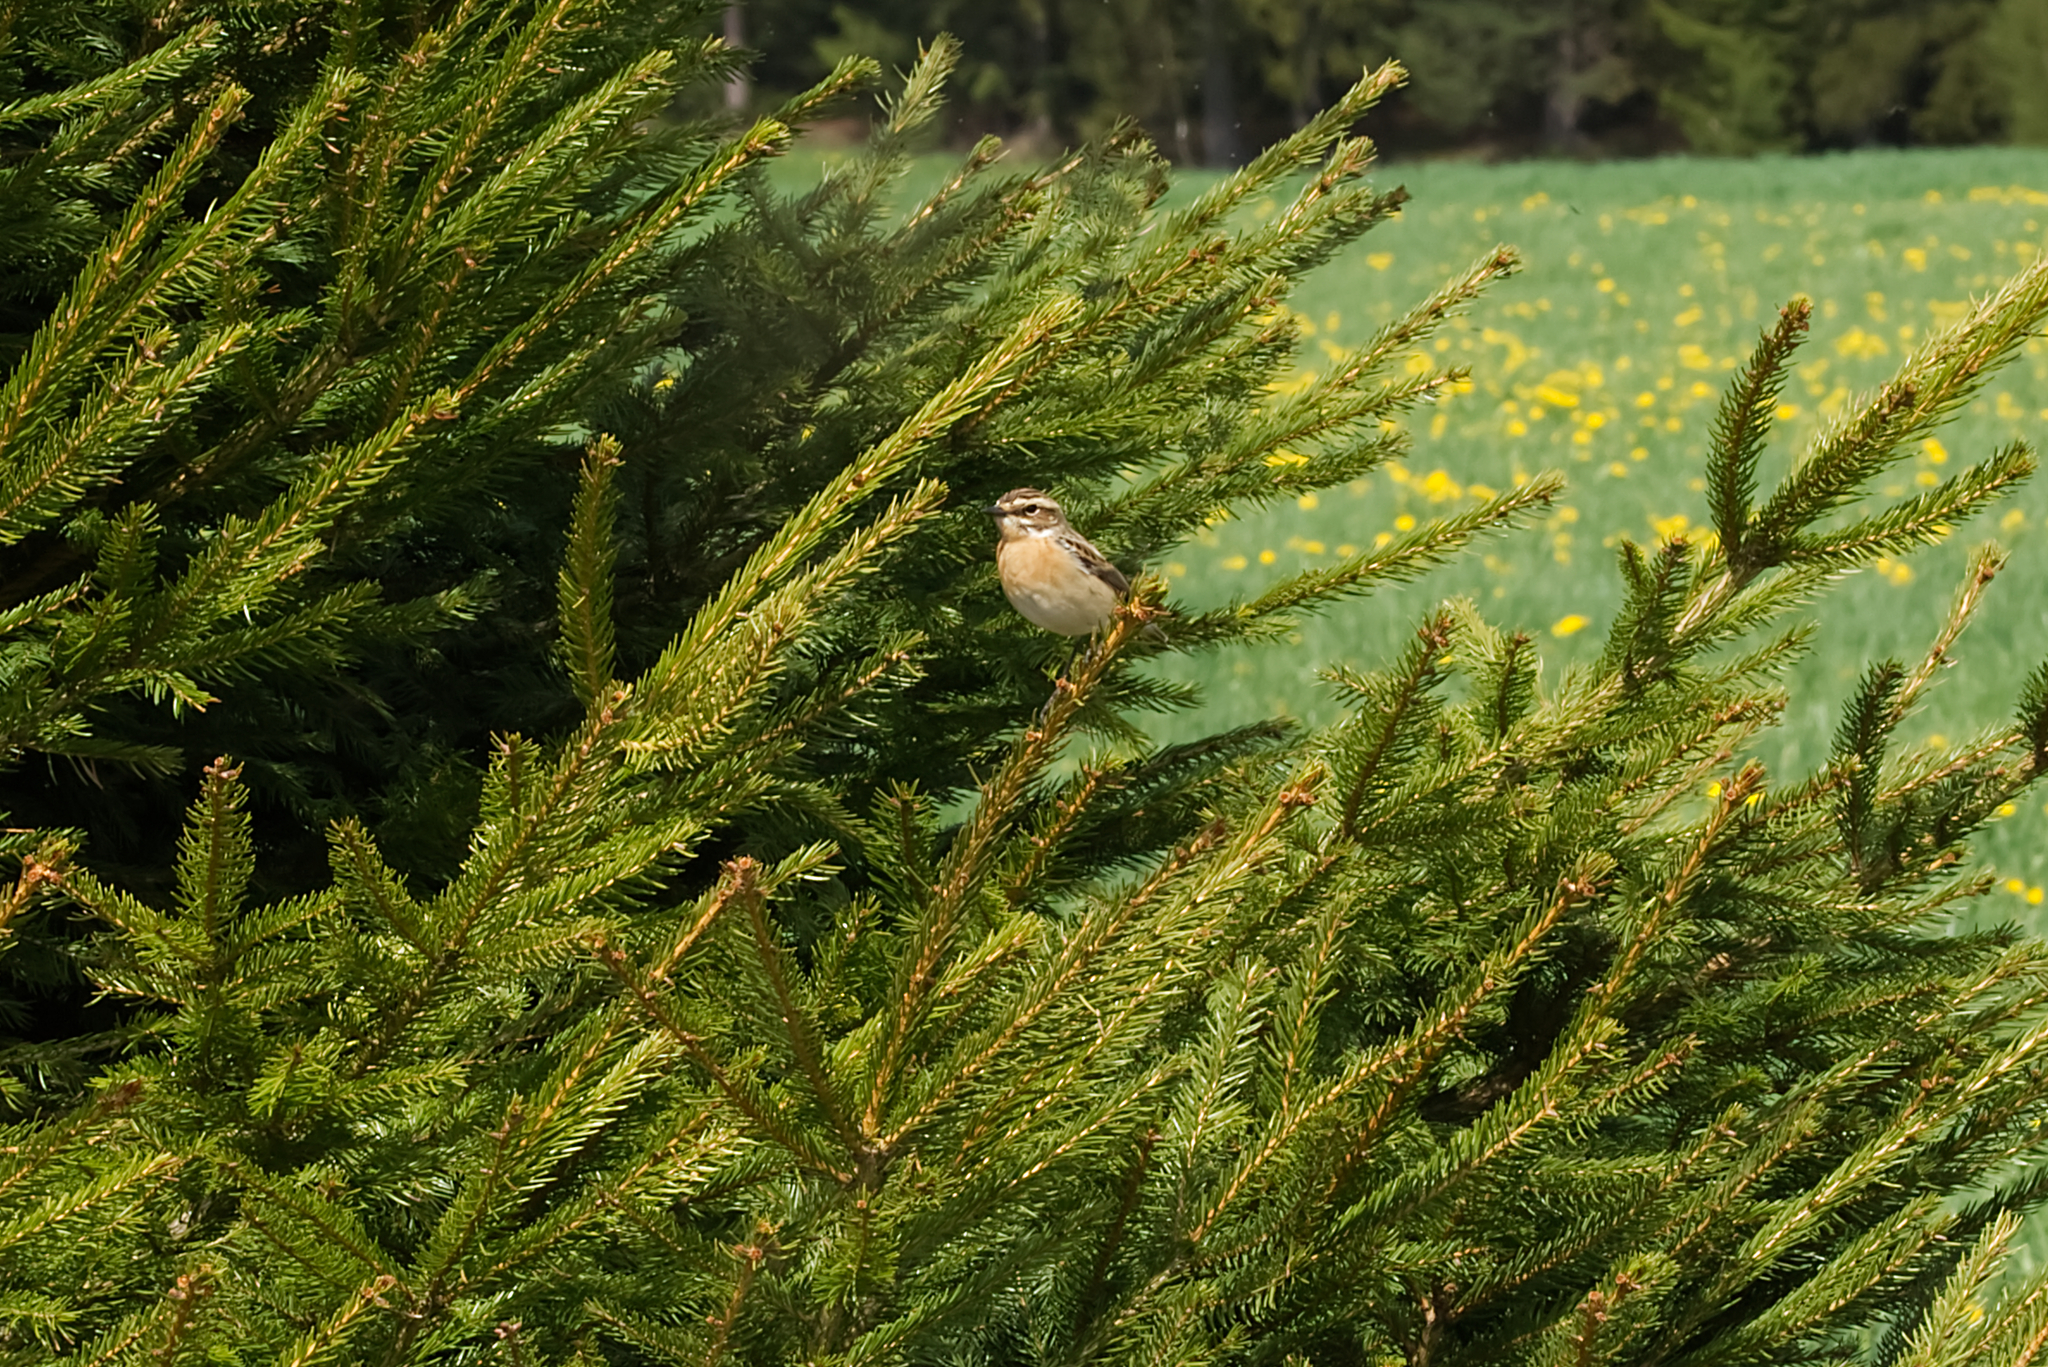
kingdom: Animalia
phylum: Chordata
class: Aves
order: Passeriformes
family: Muscicapidae
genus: Saxicola
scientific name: Saxicola rubetra
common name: Whinchat
